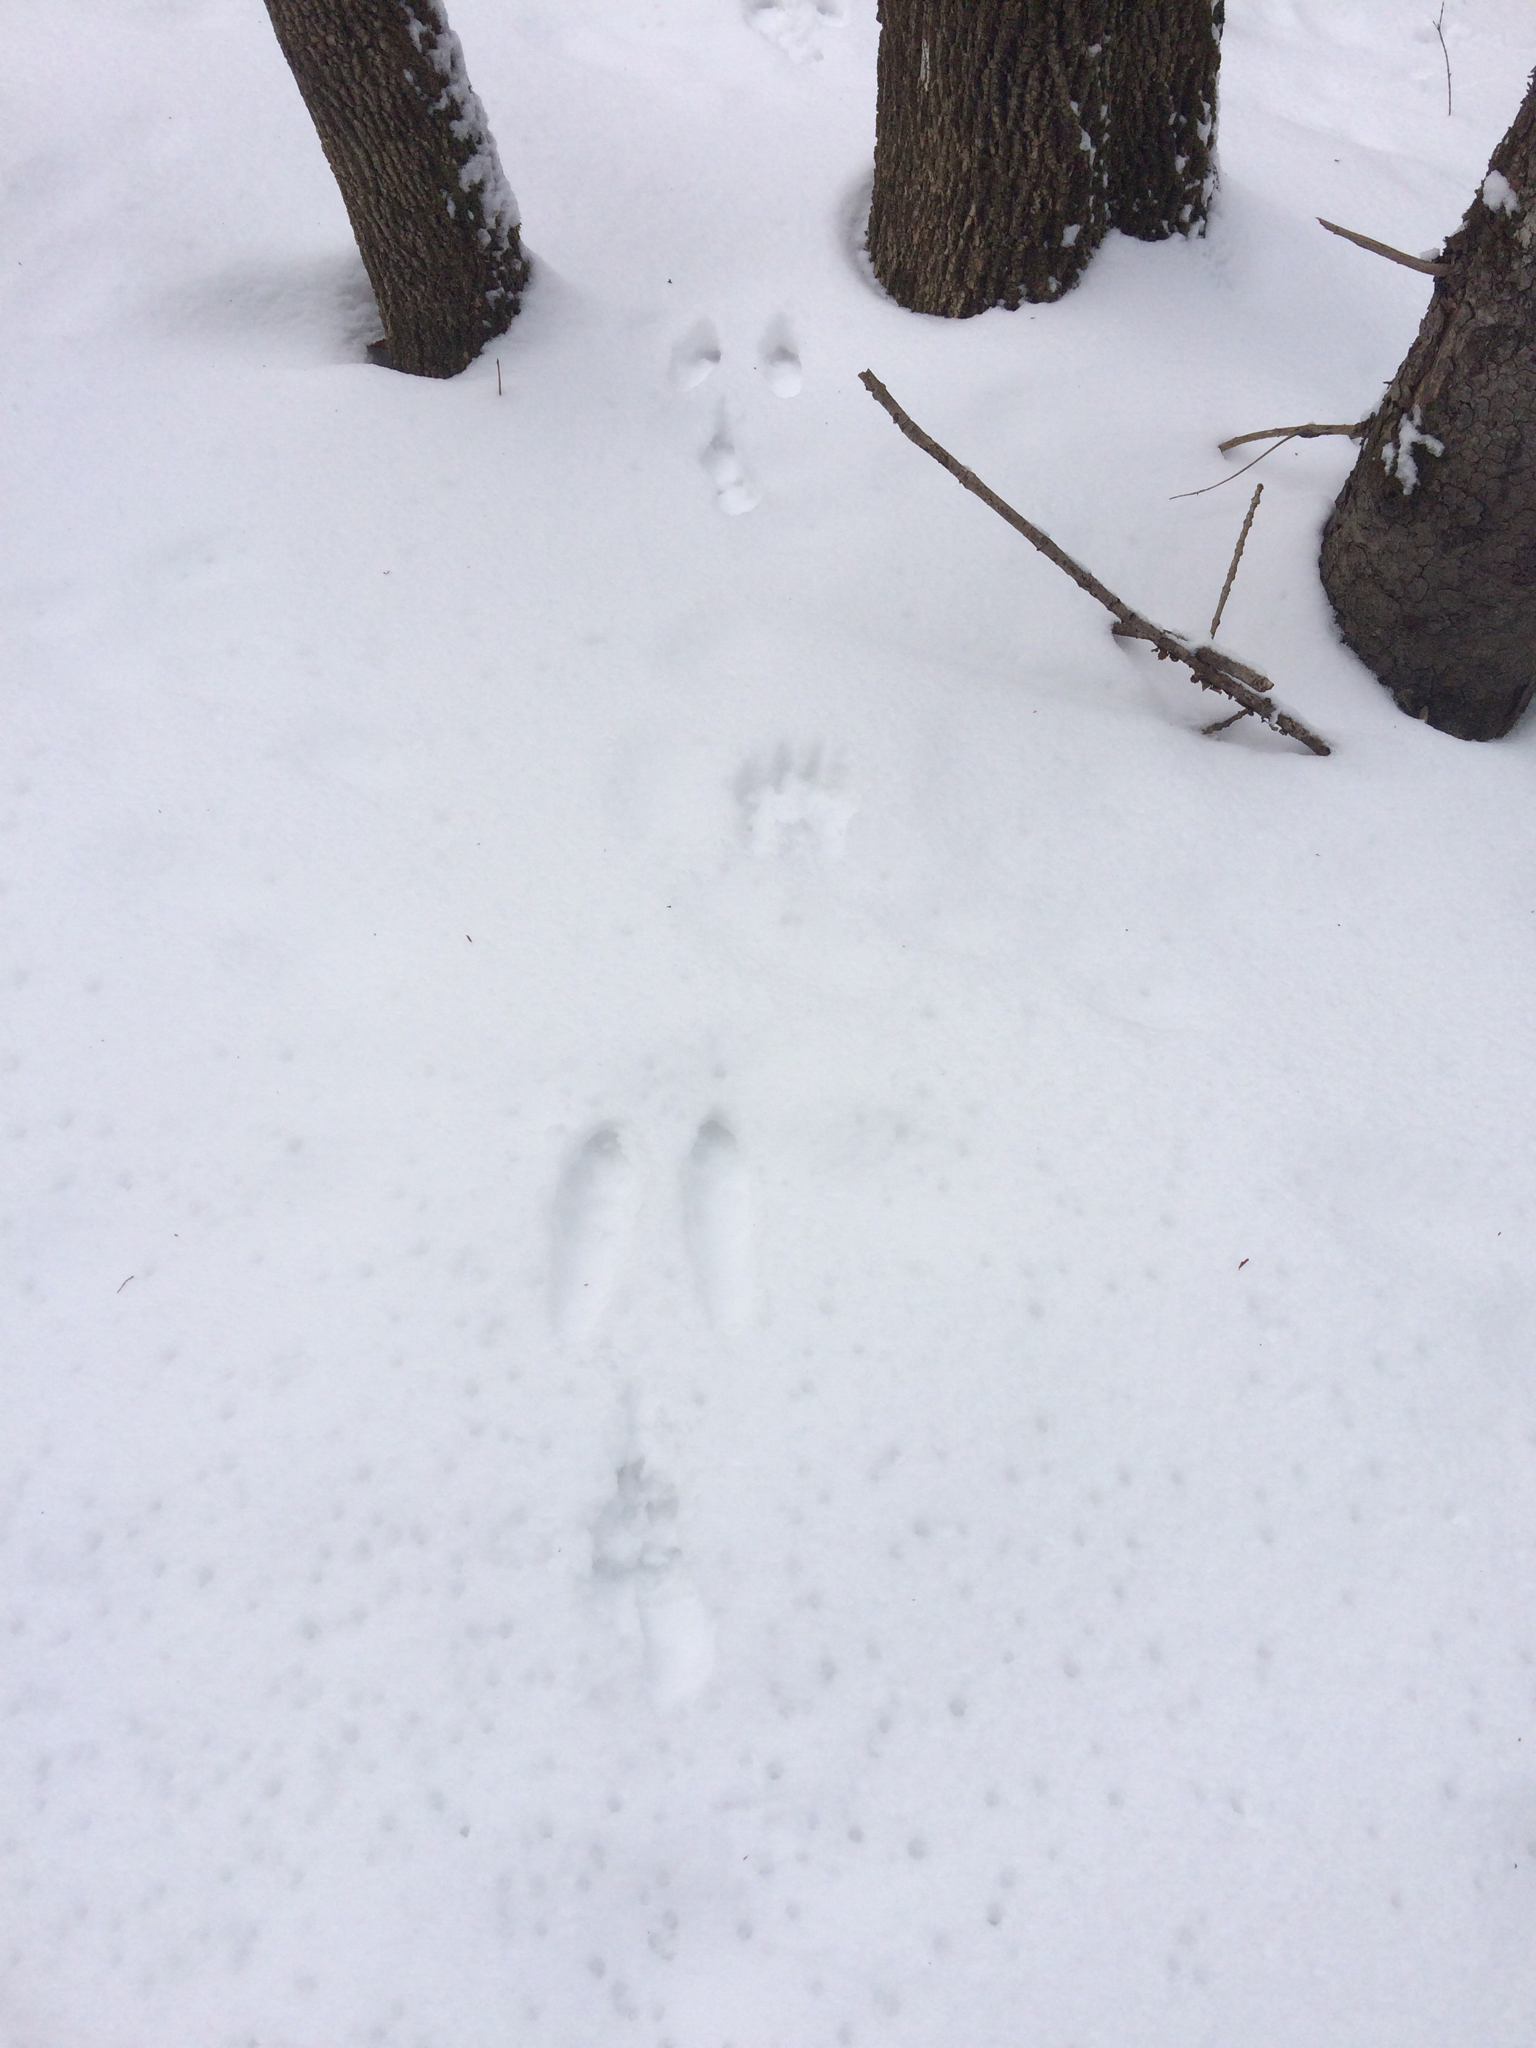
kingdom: Animalia
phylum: Chordata
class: Mammalia
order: Lagomorpha
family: Leporidae
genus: Lepus
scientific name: Lepus americanus
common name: Snowshoe hare
